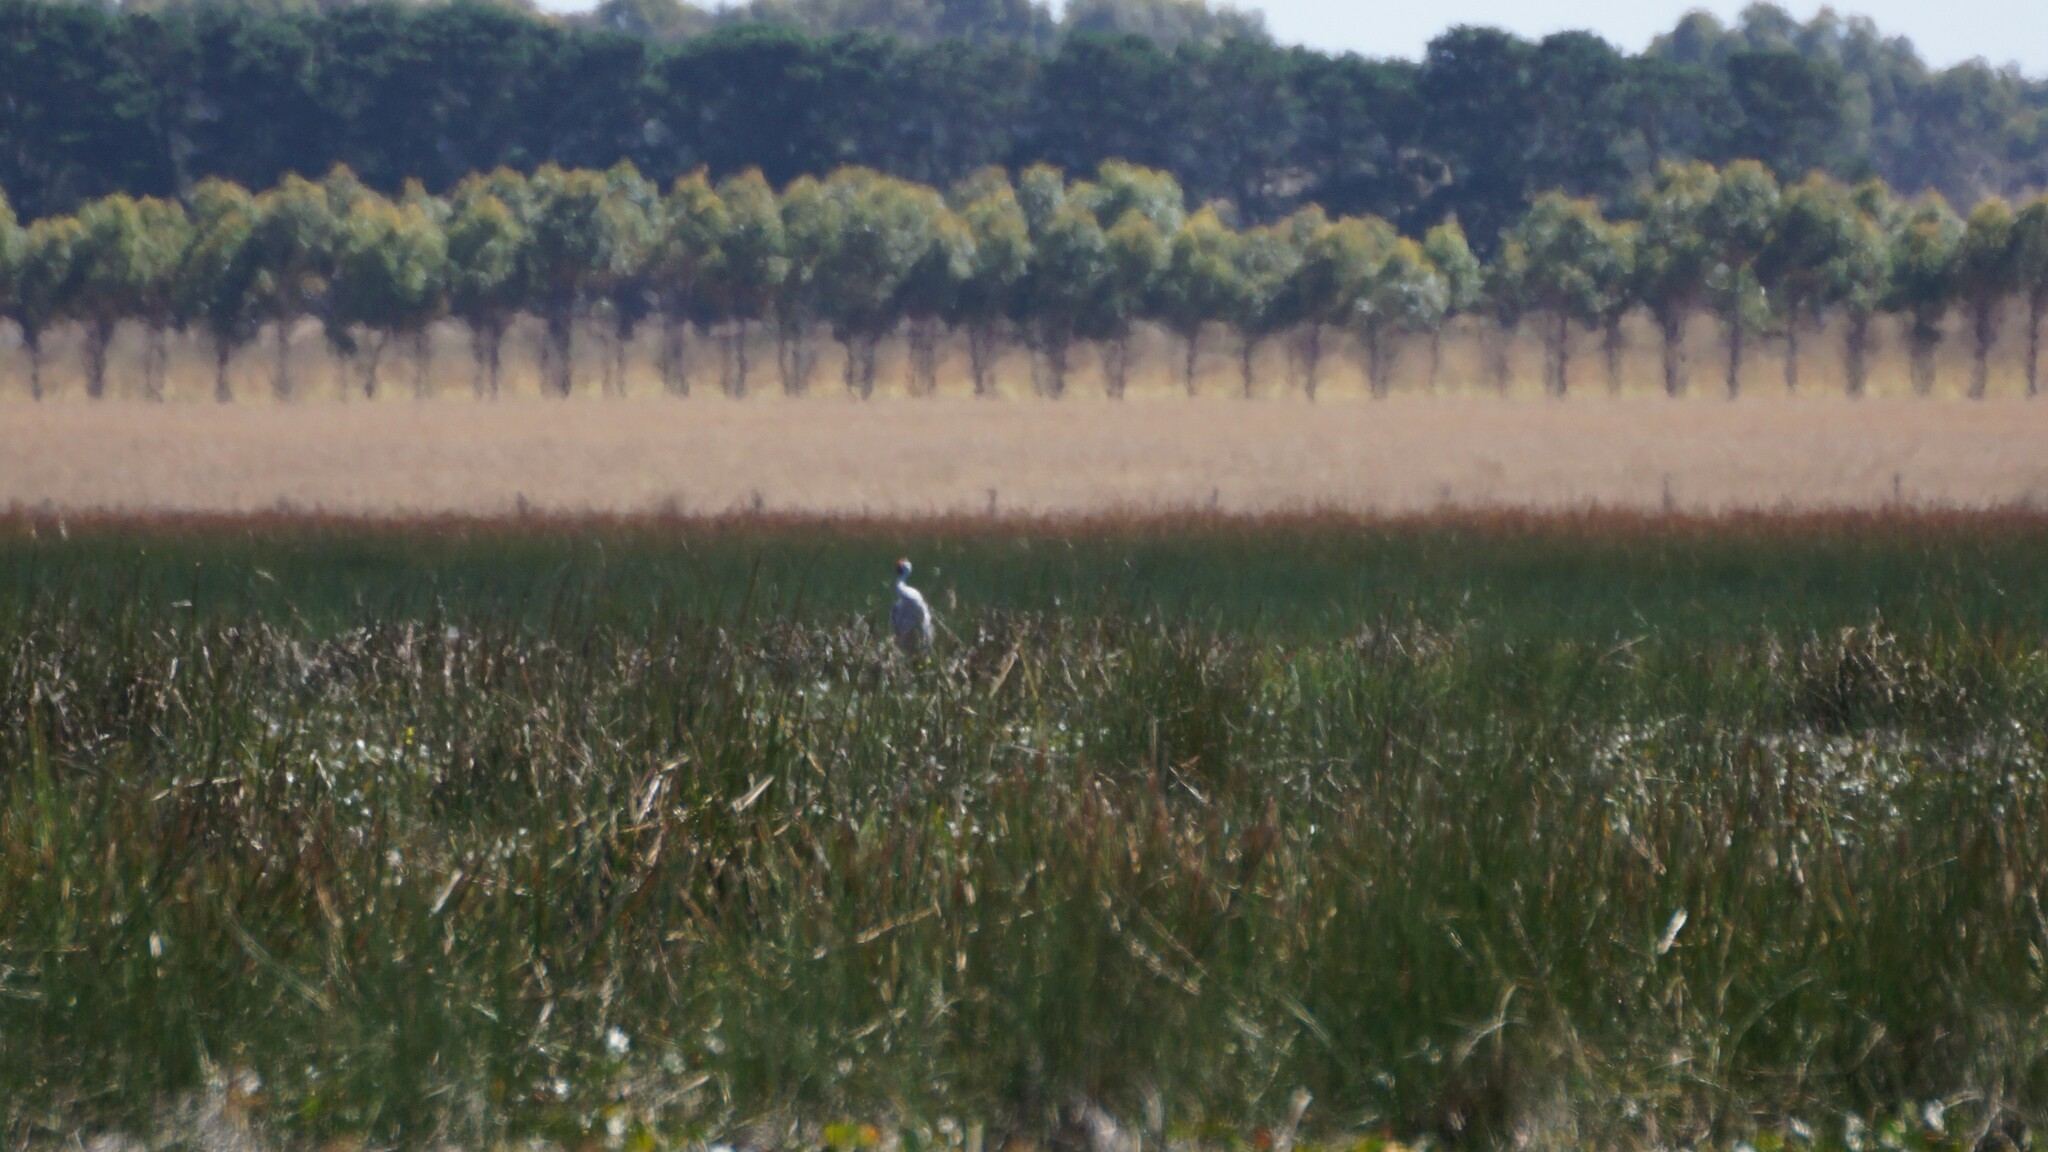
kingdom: Animalia
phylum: Chordata
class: Aves
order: Gruiformes
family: Gruidae
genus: Grus
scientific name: Grus rubicunda
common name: Brolga
